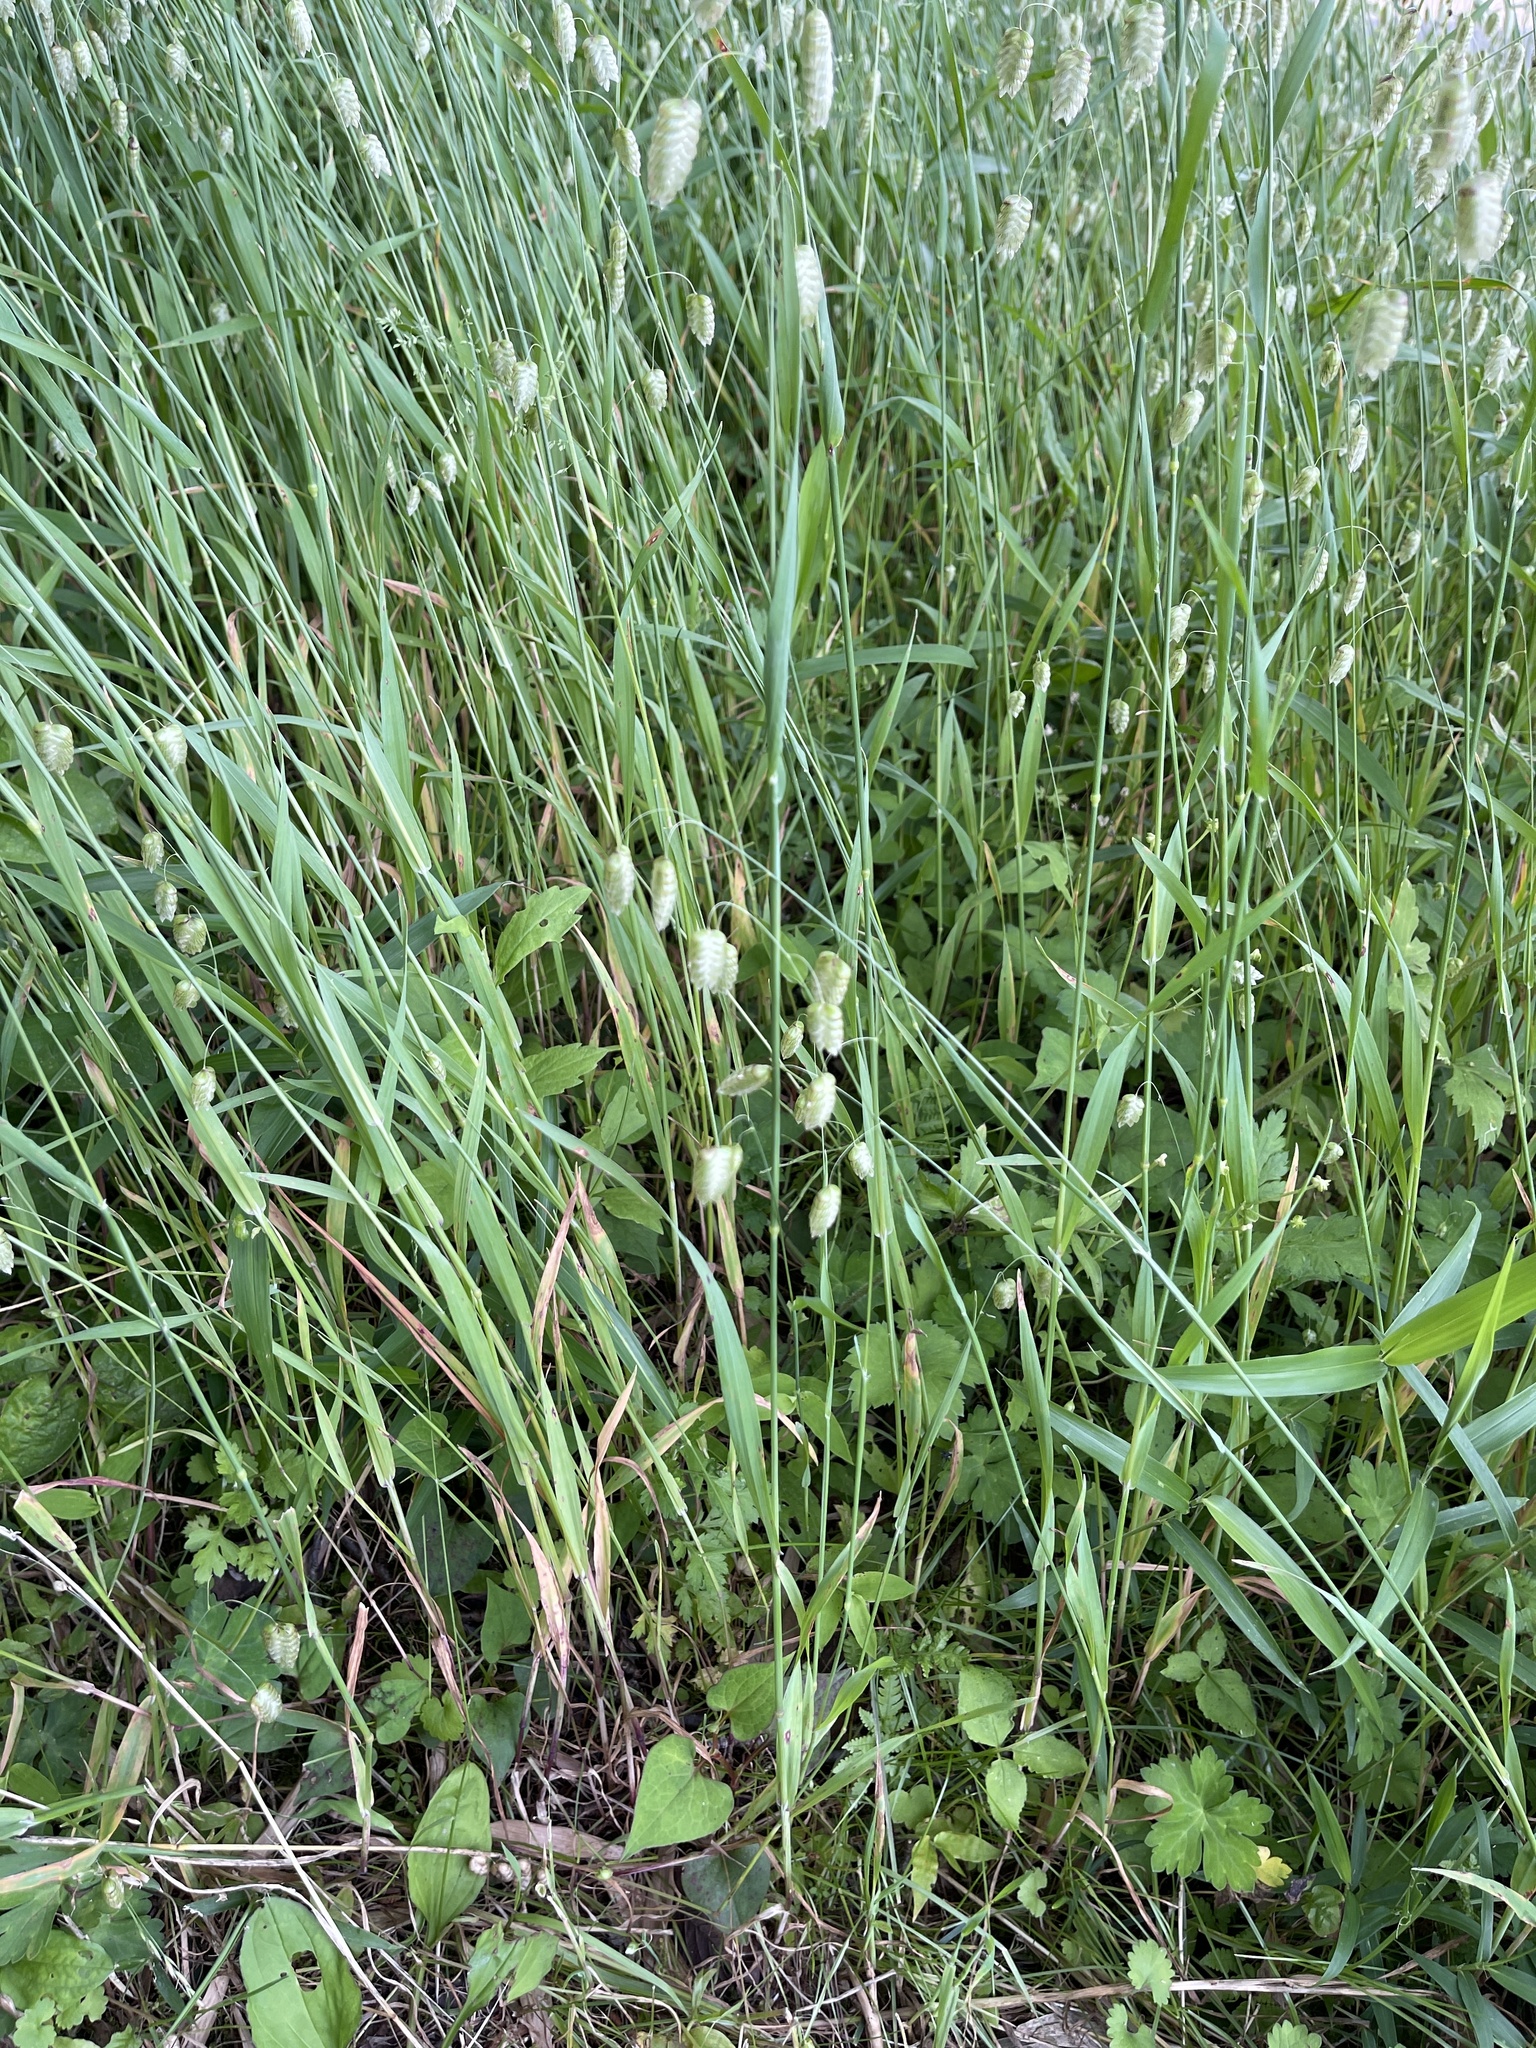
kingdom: Plantae
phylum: Tracheophyta
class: Liliopsida
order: Poales
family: Poaceae
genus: Briza
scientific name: Briza maxima
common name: Big quakinggrass
